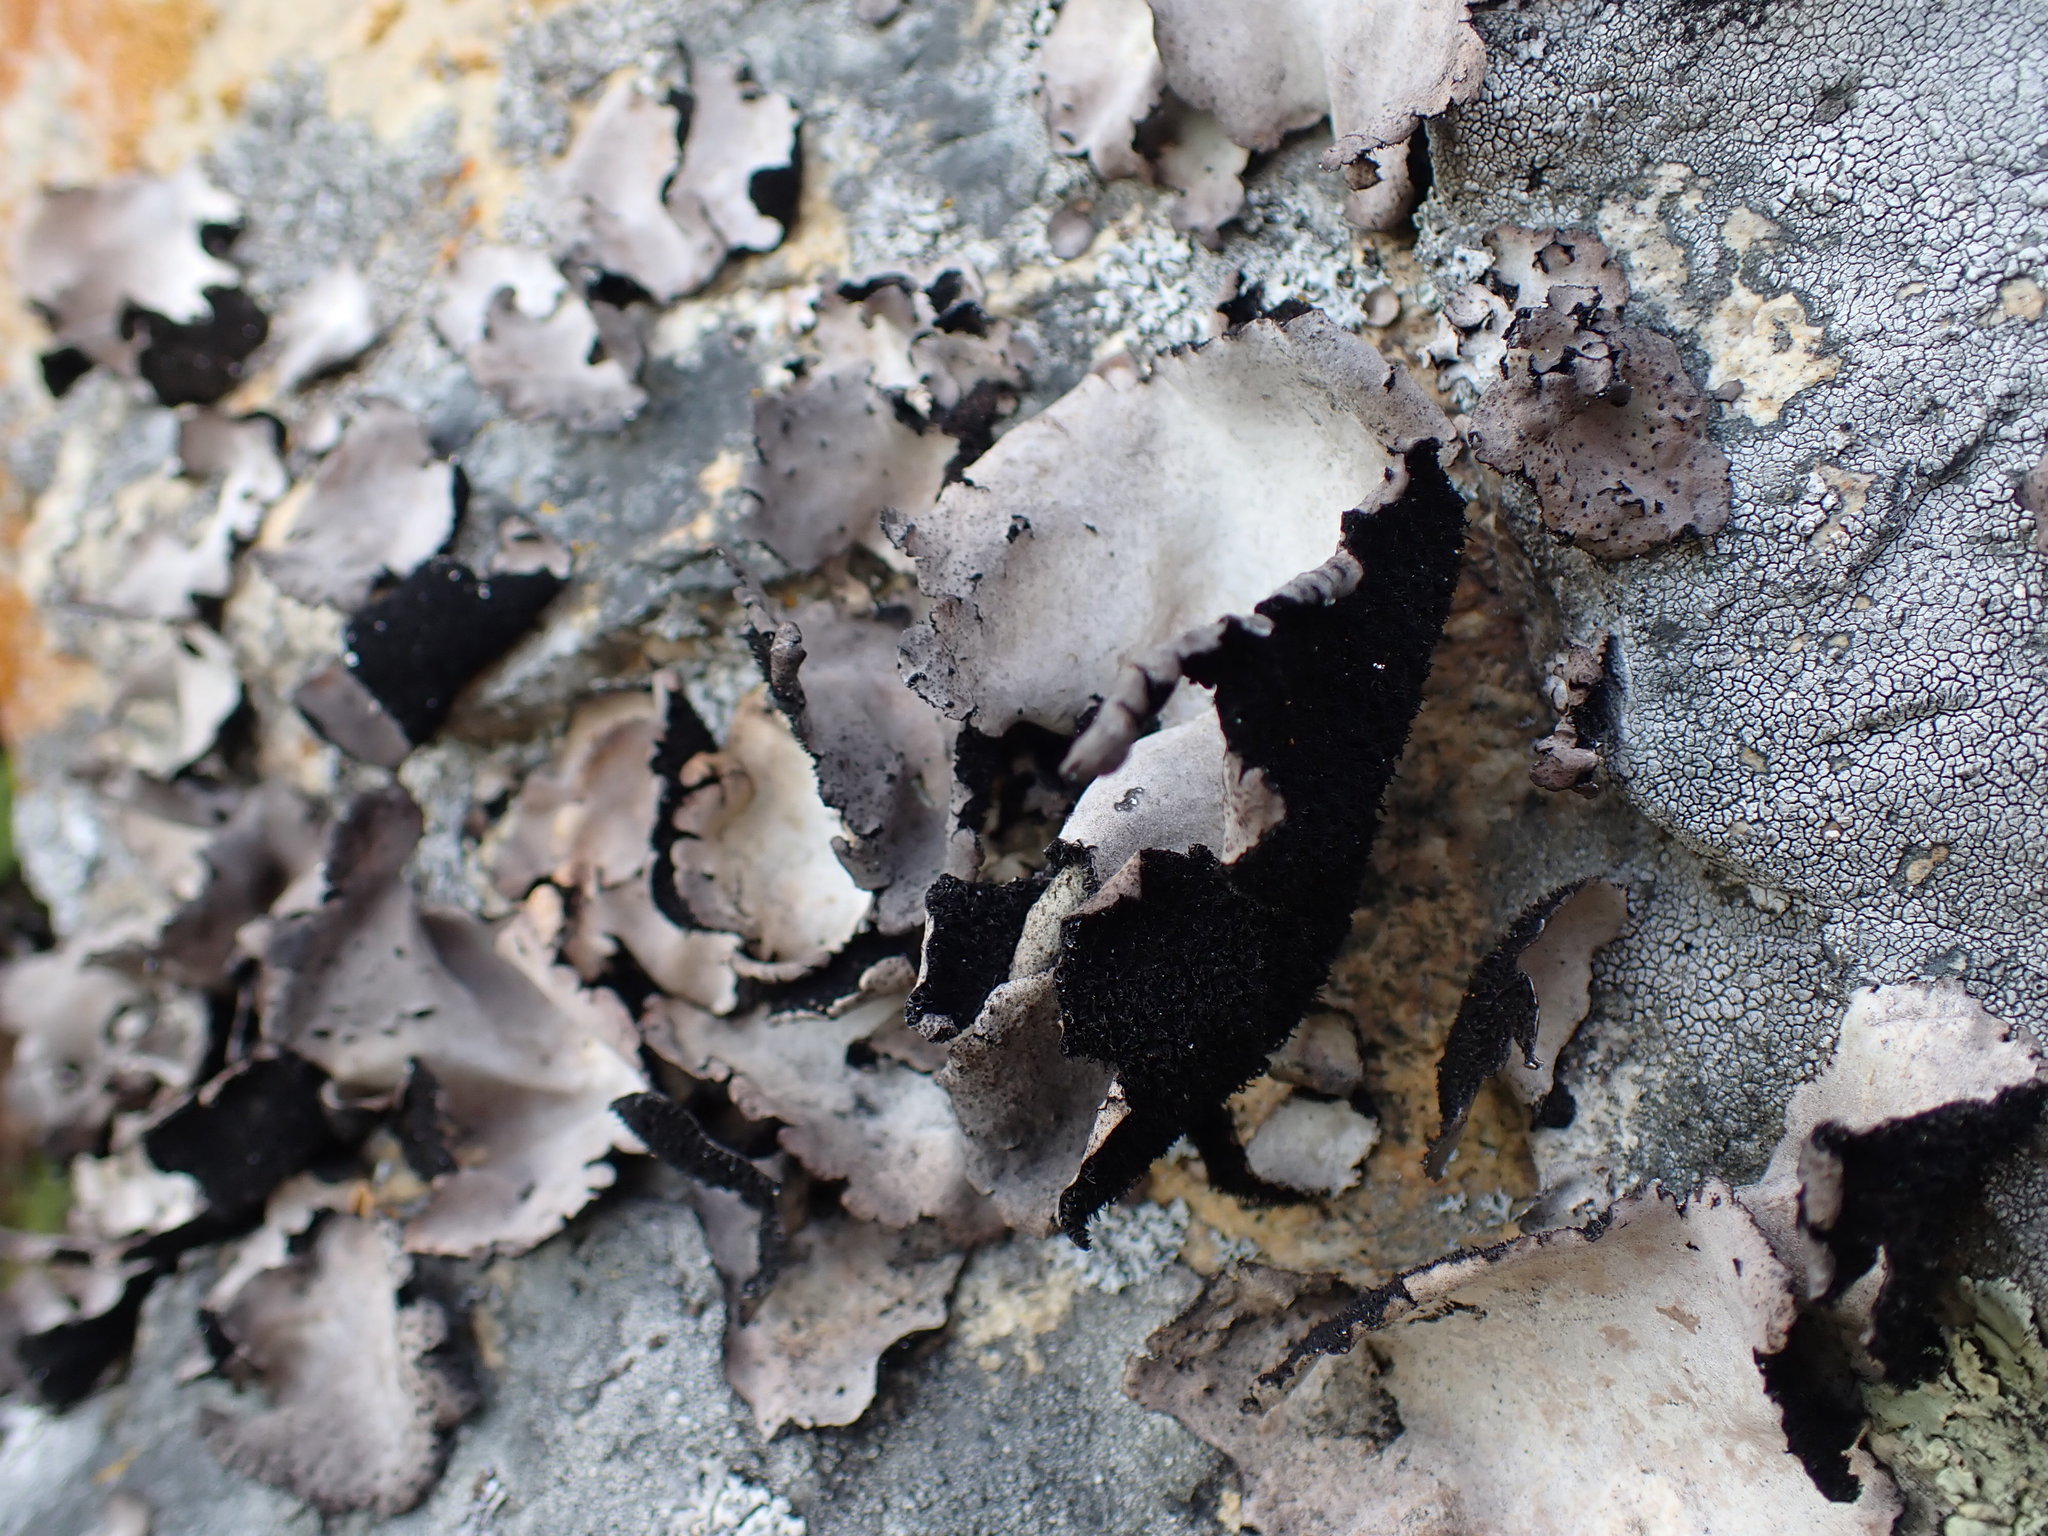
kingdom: Fungi
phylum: Ascomycota
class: Lecanoromycetes
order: Umbilicariales
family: Umbilicariaceae
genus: Umbilicaria
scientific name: Umbilicaria americana
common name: Frosted rock tripe
